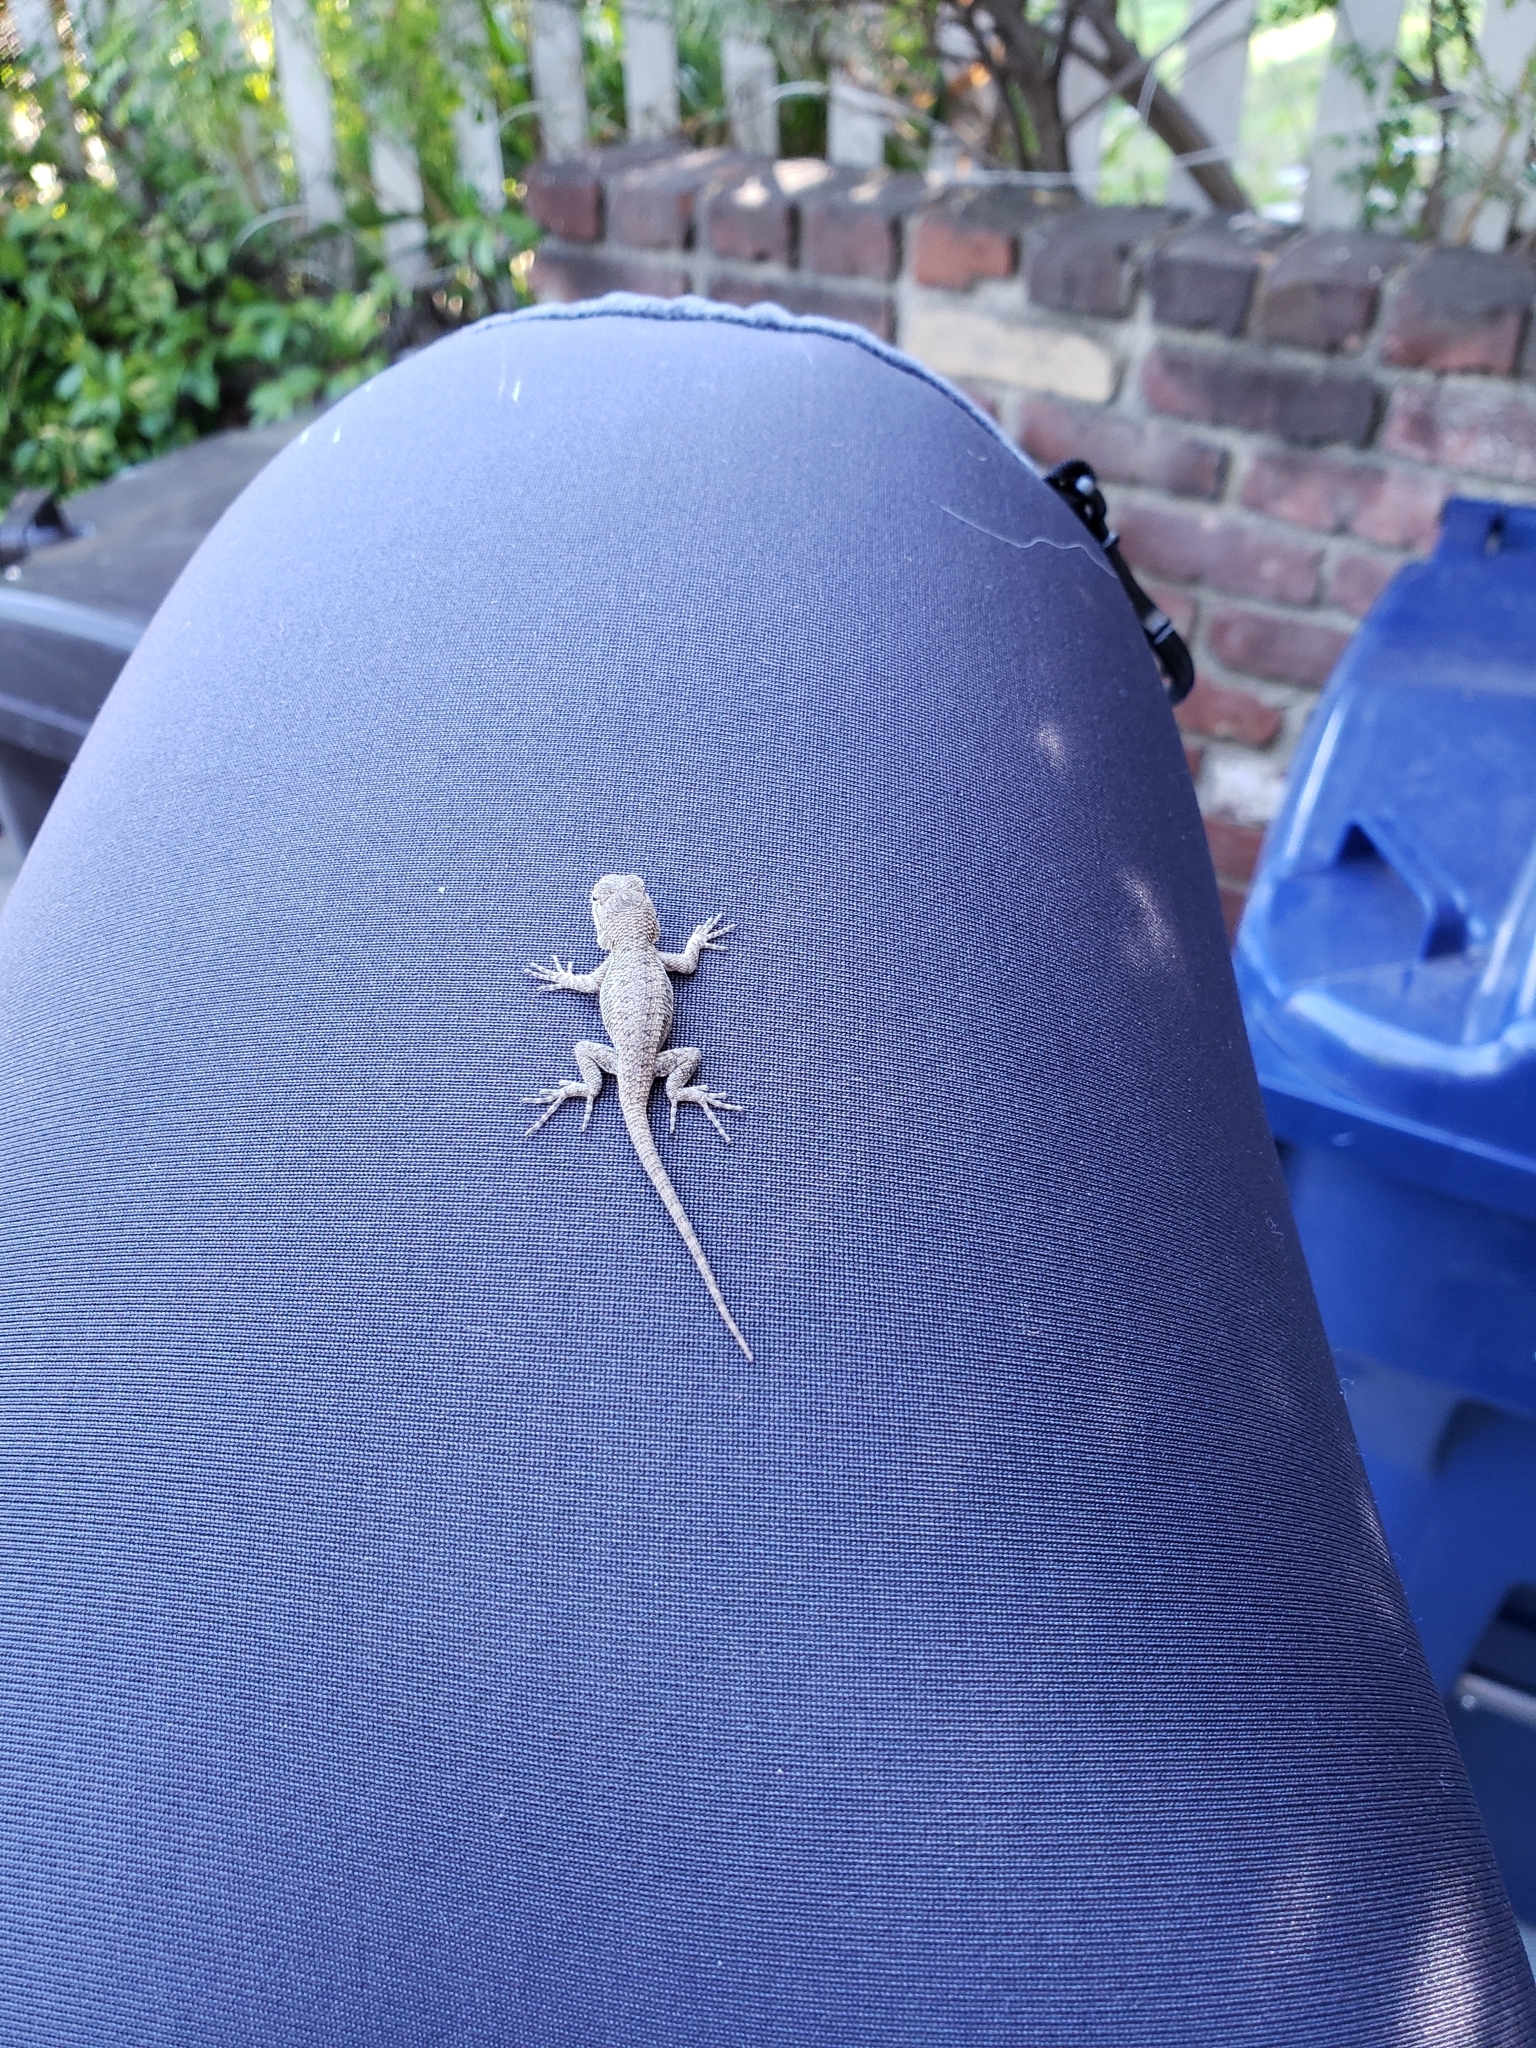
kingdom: Animalia
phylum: Chordata
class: Squamata
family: Phrynosomatidae
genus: Sceloporus
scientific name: Sceloporus occidentalis
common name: Western fence lizard
